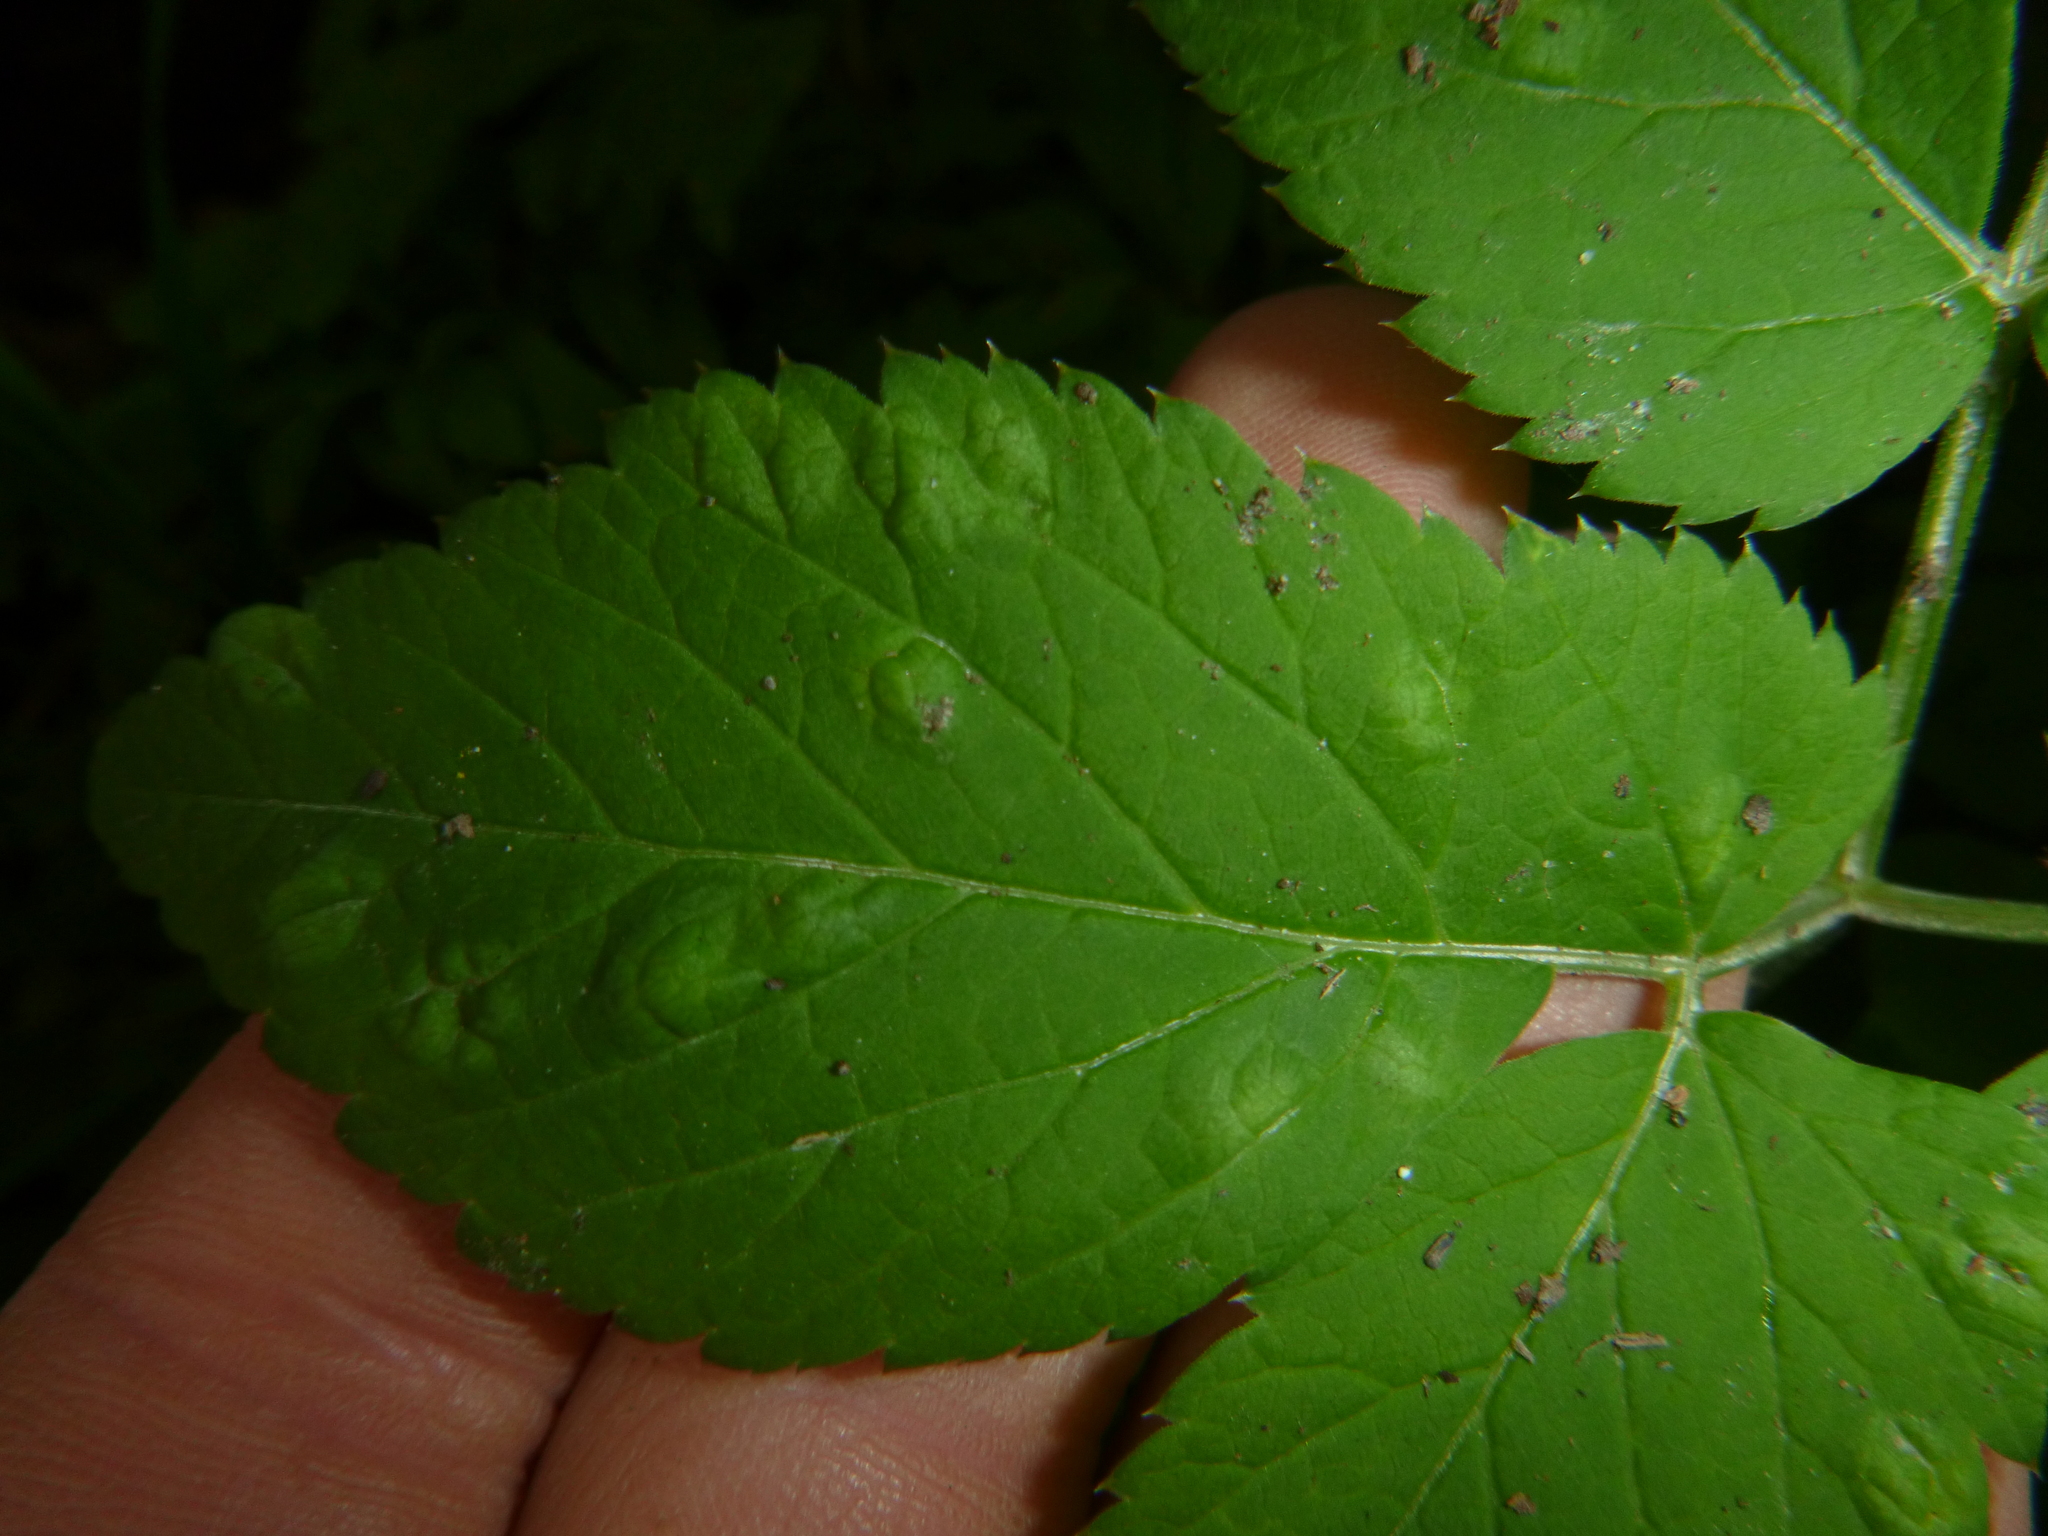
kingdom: Animalia
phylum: Arthropoda
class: Insecta
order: Hemiptera
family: Triozidae
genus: Trioza
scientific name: Trioza flavipennis
